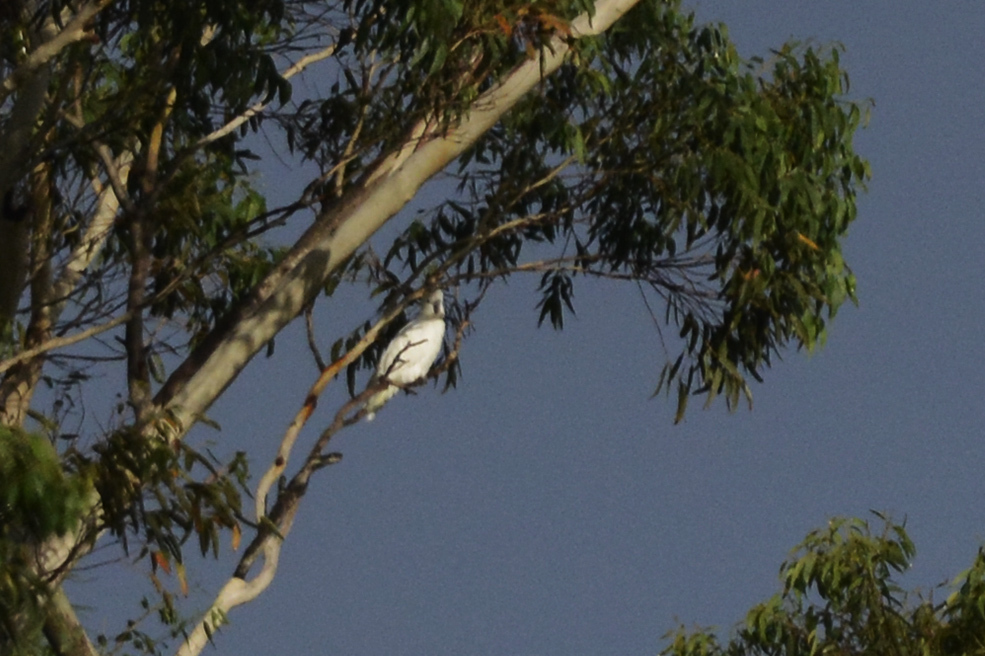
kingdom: Animalia
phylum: Chordata
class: Aves
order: Psittaciformes
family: Psittacidae
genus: Cacatua
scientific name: Cacatua galerita
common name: Sulphur-crested cockatoo
